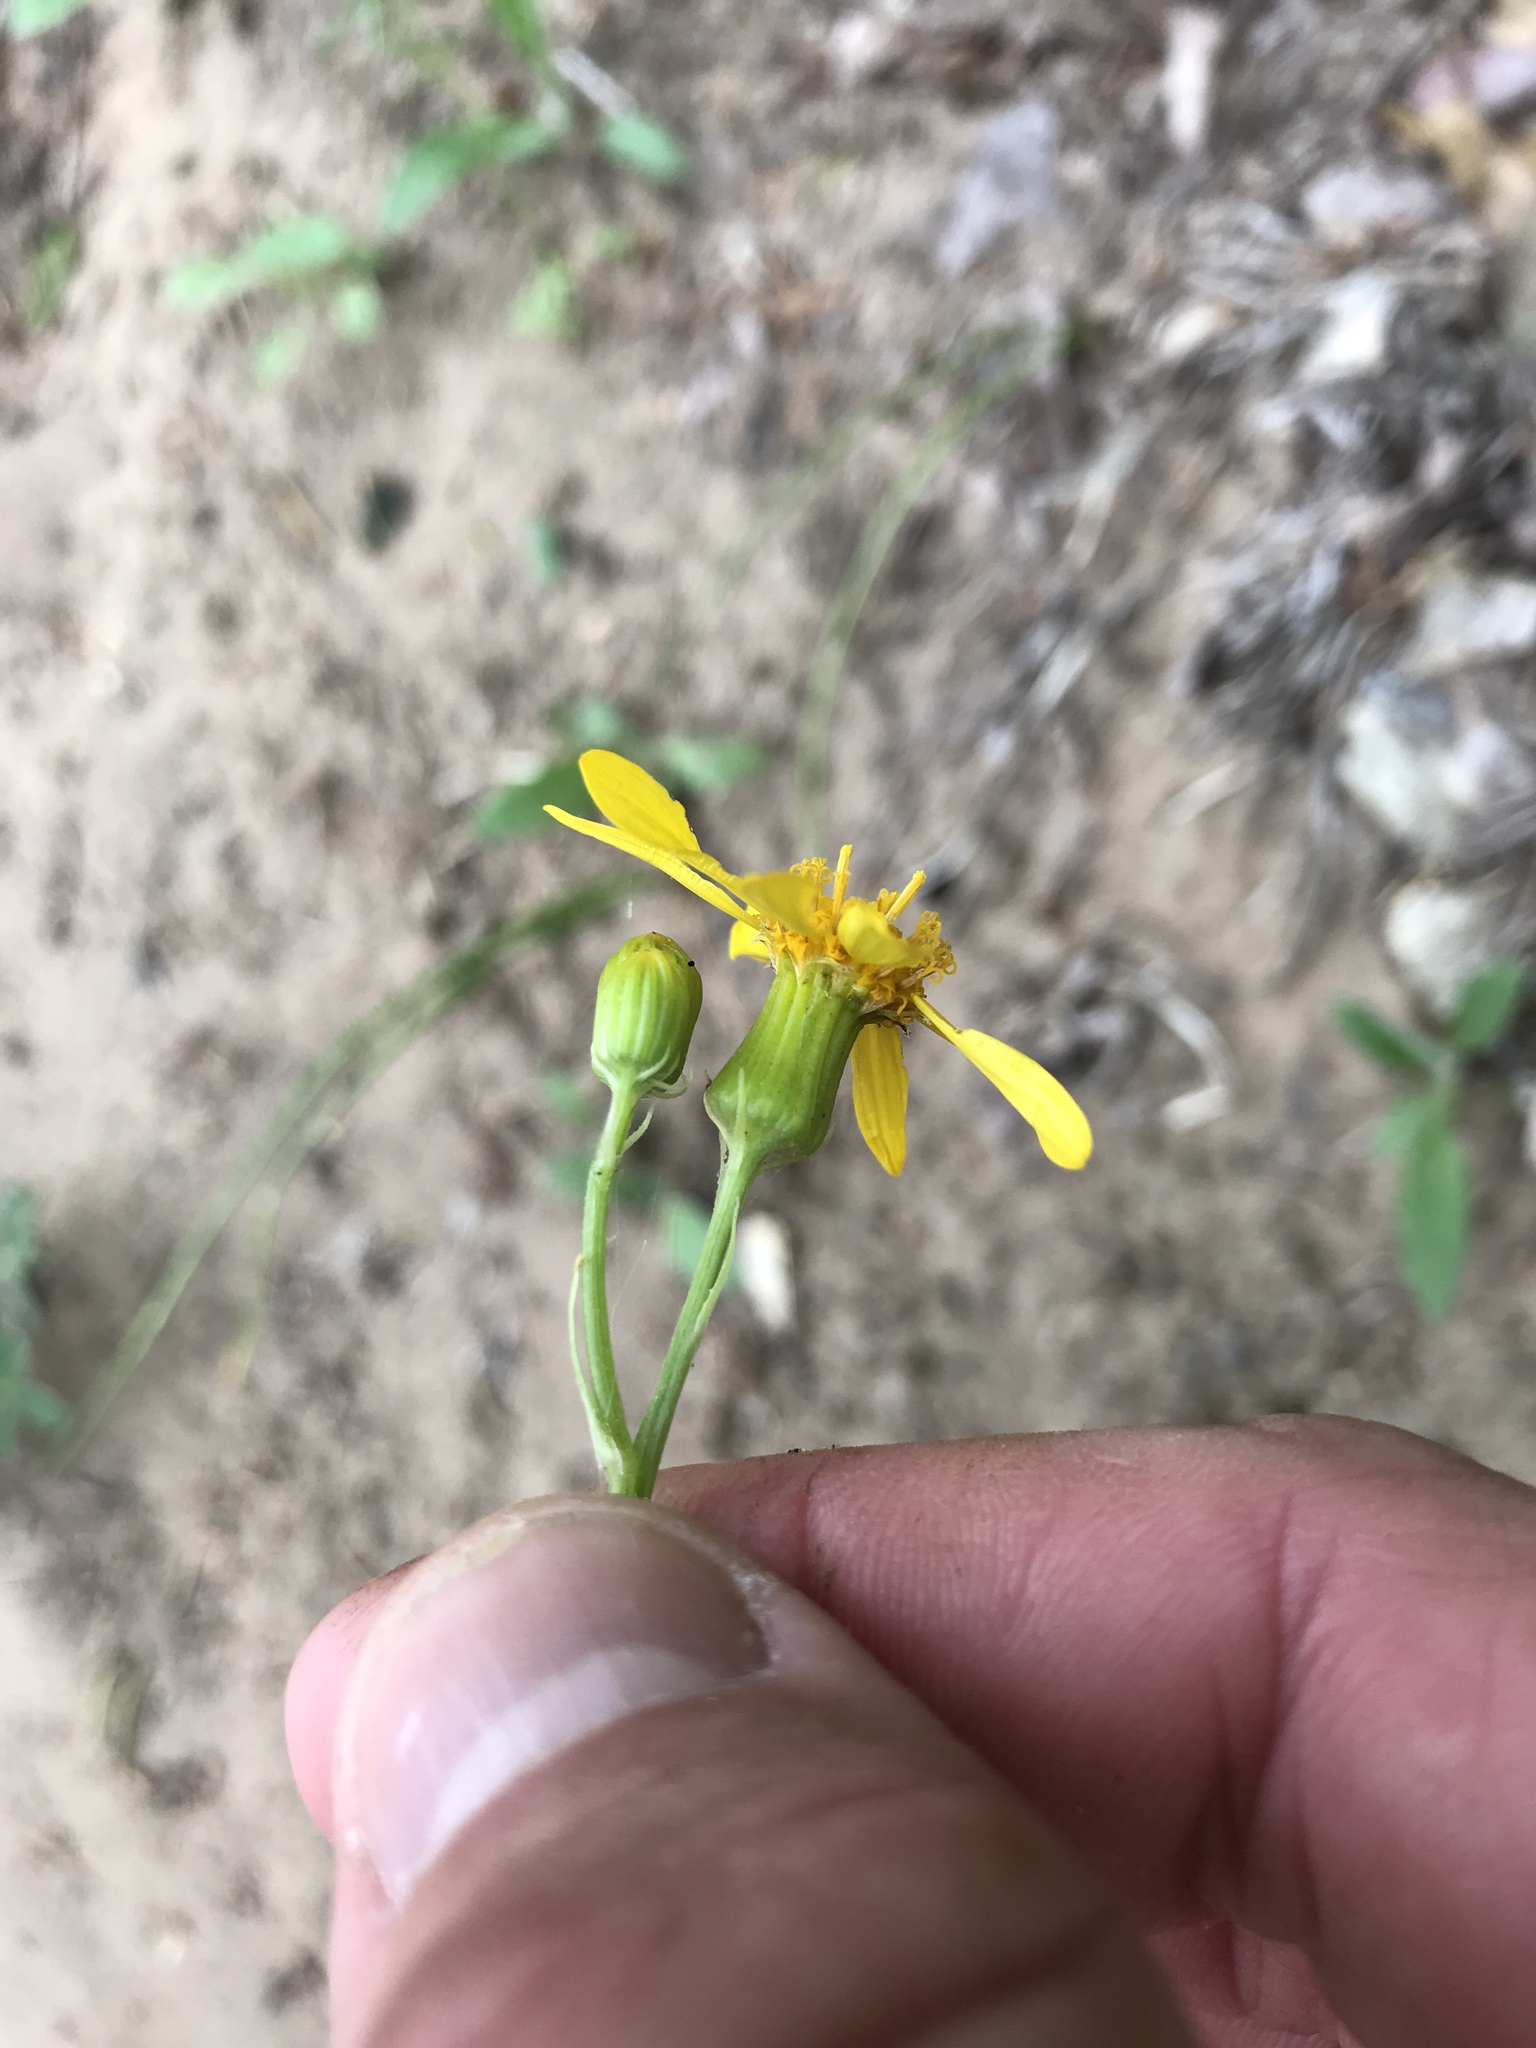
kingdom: Plantae
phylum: Tracheophyta
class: Magnoliopsida
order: Asterales
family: Asteraceae
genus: Senecio
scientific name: Senecio ampullaceus
